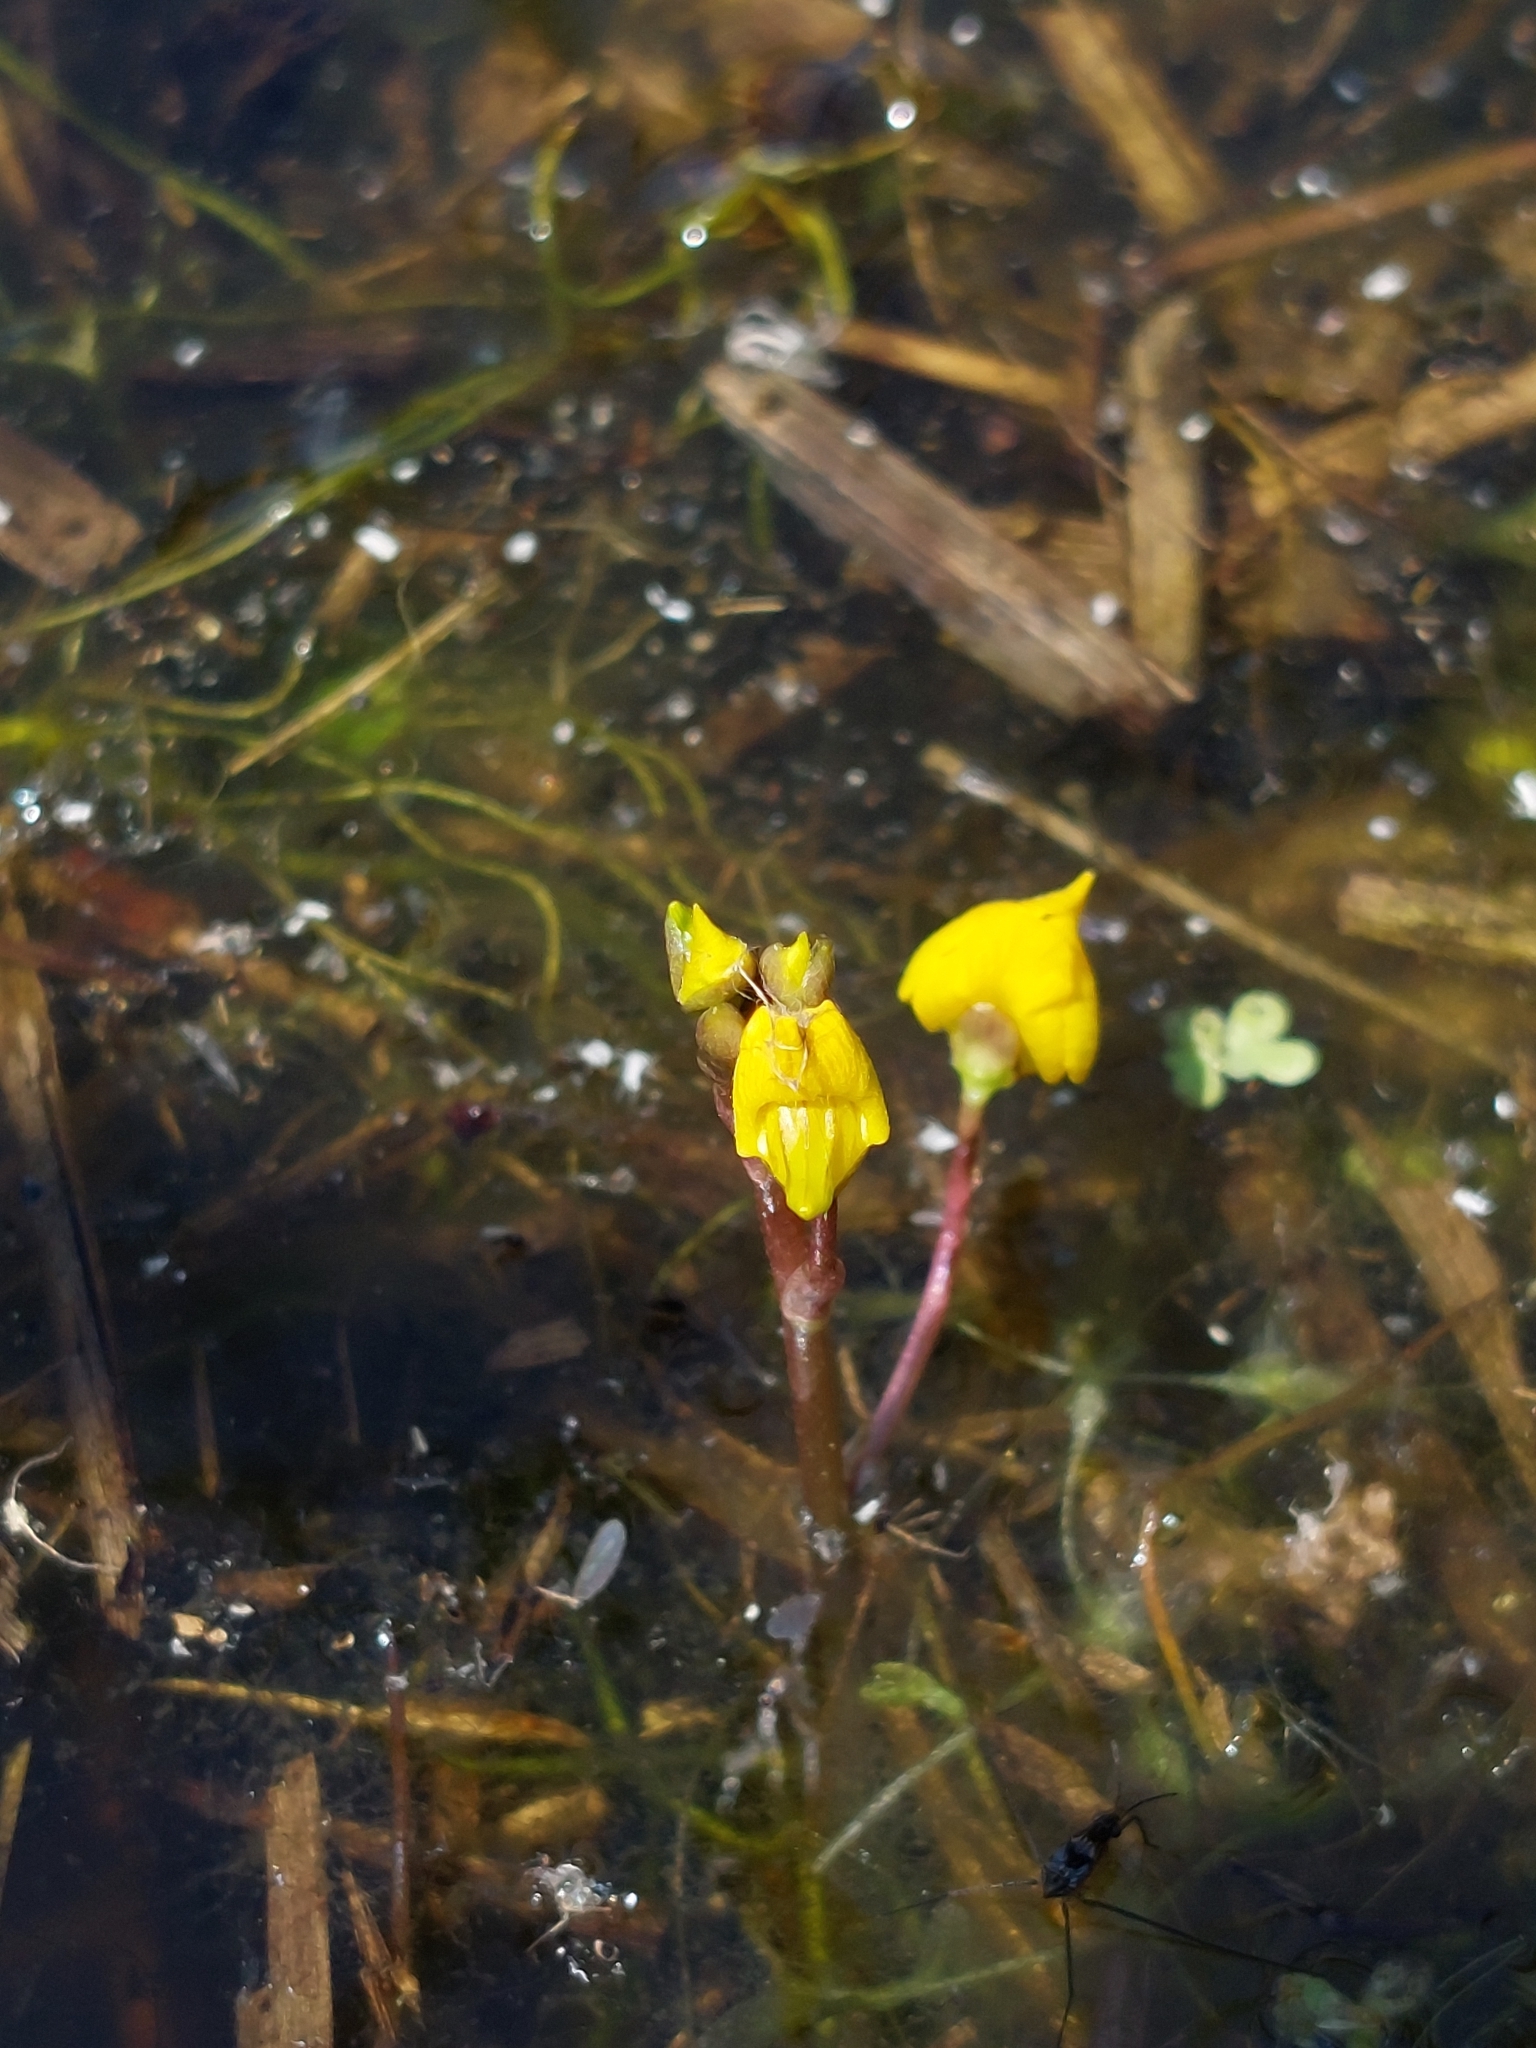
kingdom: Plantae
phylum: Tracheophyta
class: Magnoliopsida
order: Lamiales
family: Lentibulariaceae
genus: Utricularia
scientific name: Utricularia australis
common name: Bladderwort
